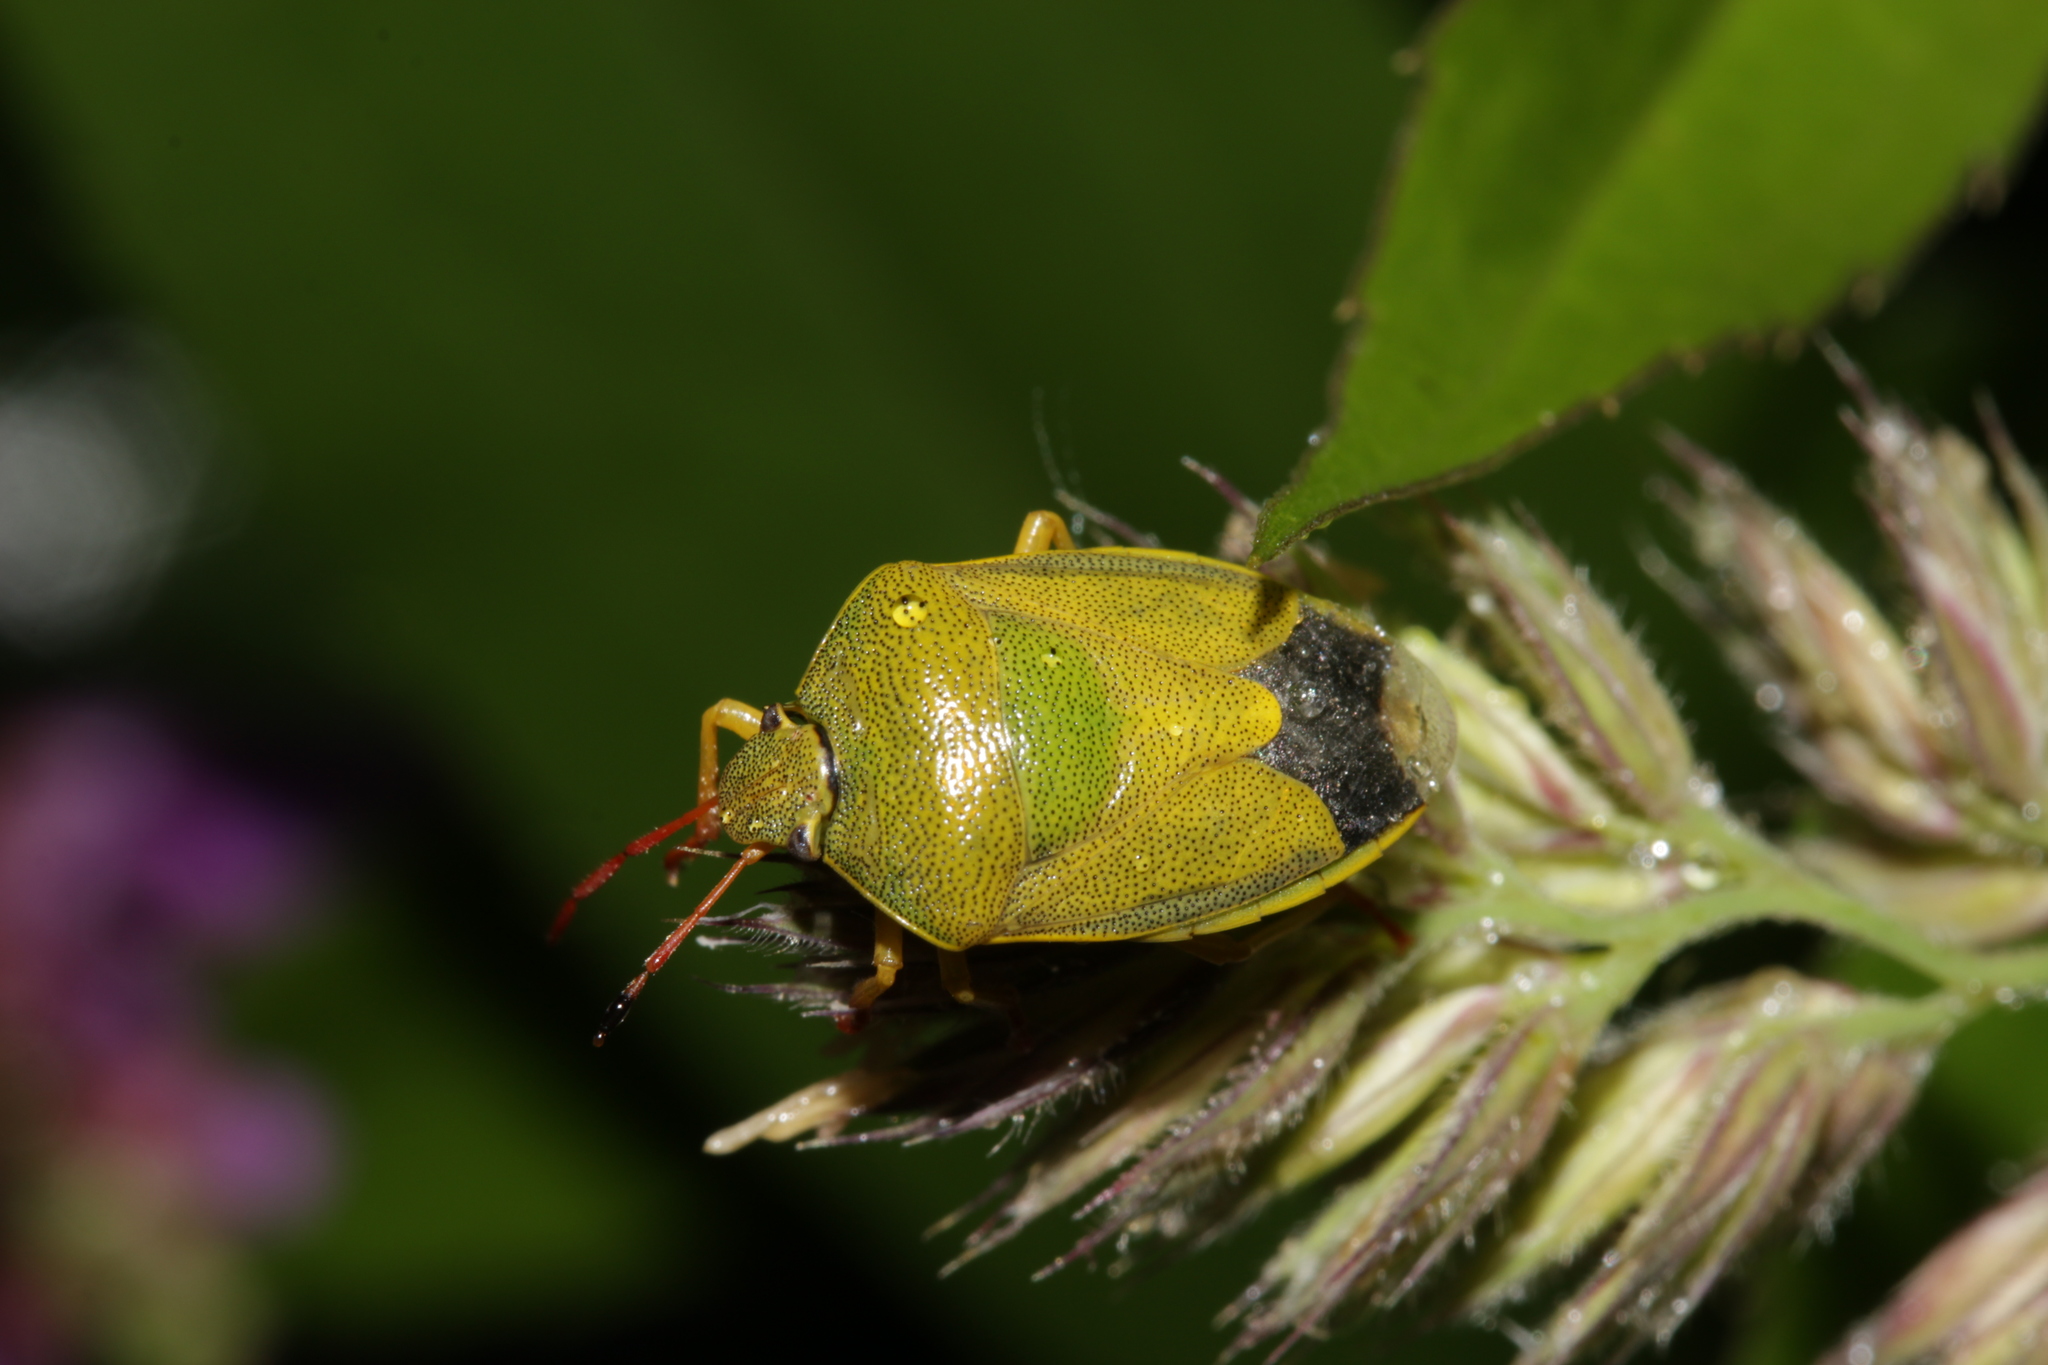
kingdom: Animalia
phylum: Arthropoda
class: Insecta
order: Hemiptera
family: Pentatomidae
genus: Piezodorus
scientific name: Piezodorus lituratus
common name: Stink bug
